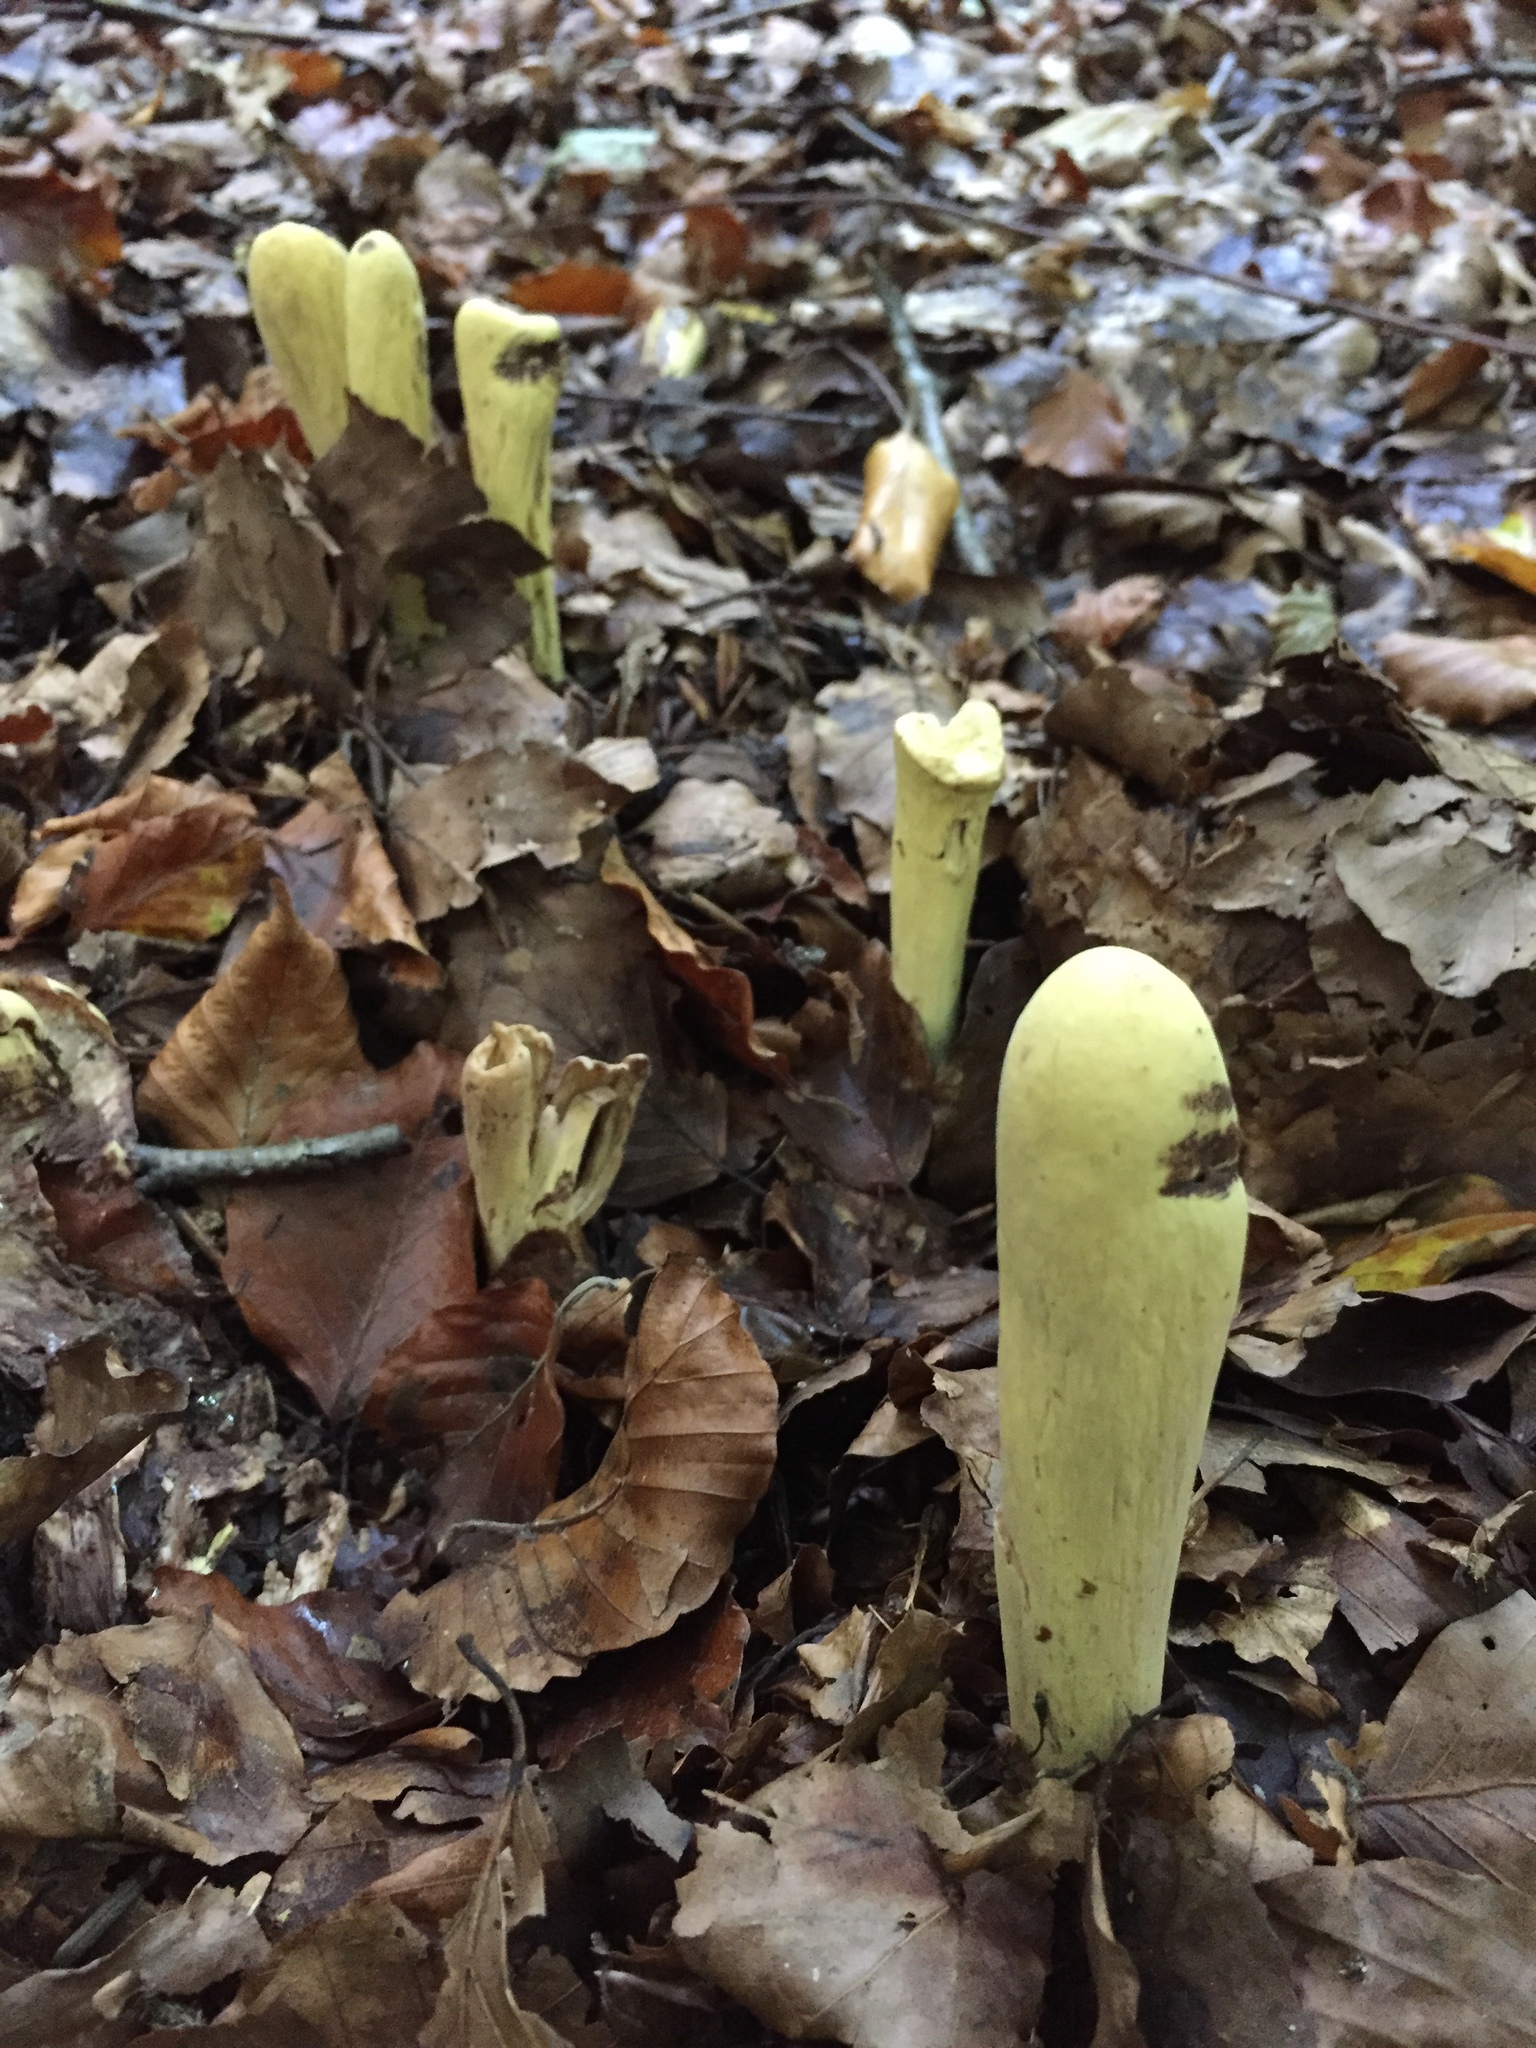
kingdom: Fungi
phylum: Basidiomycota
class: Agaricomycetes
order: Gomphales
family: Clavariadelphaceae
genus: Clavariadelphus
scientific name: Clavariadelphus pistillaris
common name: Giant club
